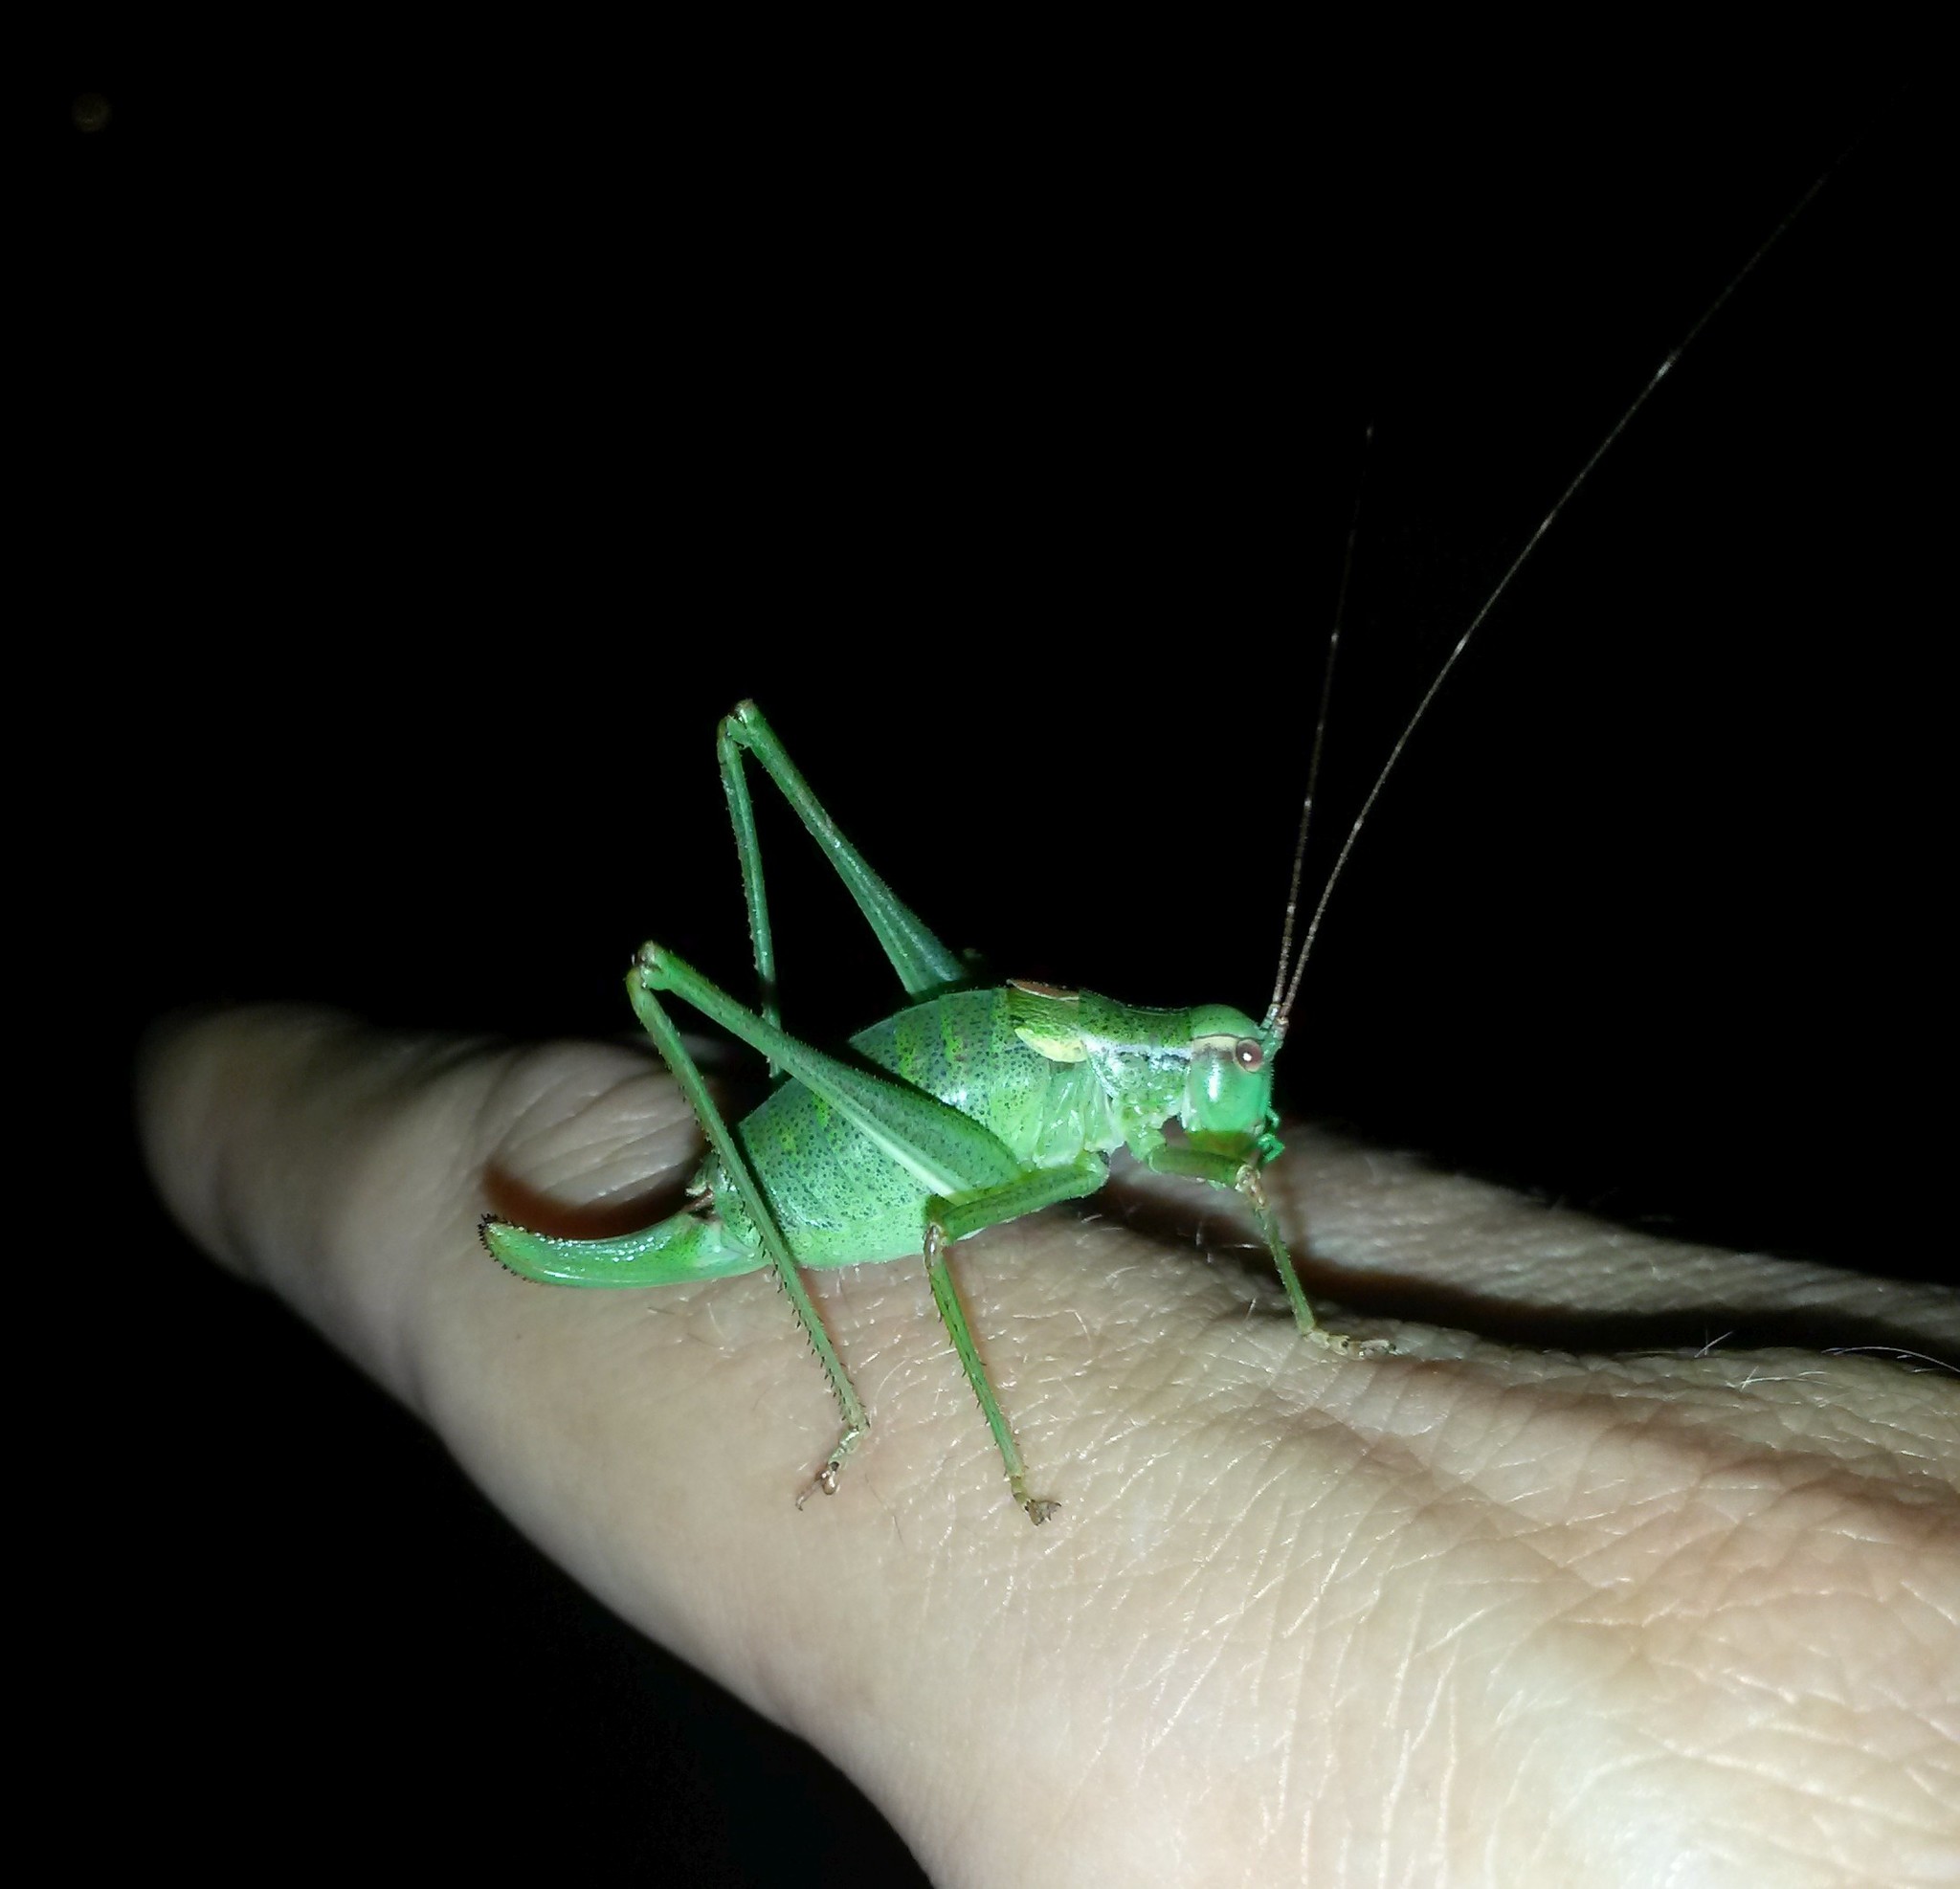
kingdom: Animalia
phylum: Arthropoda
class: Insecta
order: Orthoptera
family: Tettigoniidae
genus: Barbitistes
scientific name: Barbitistes constrictus
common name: Eastern saw-tailed bush cricket
